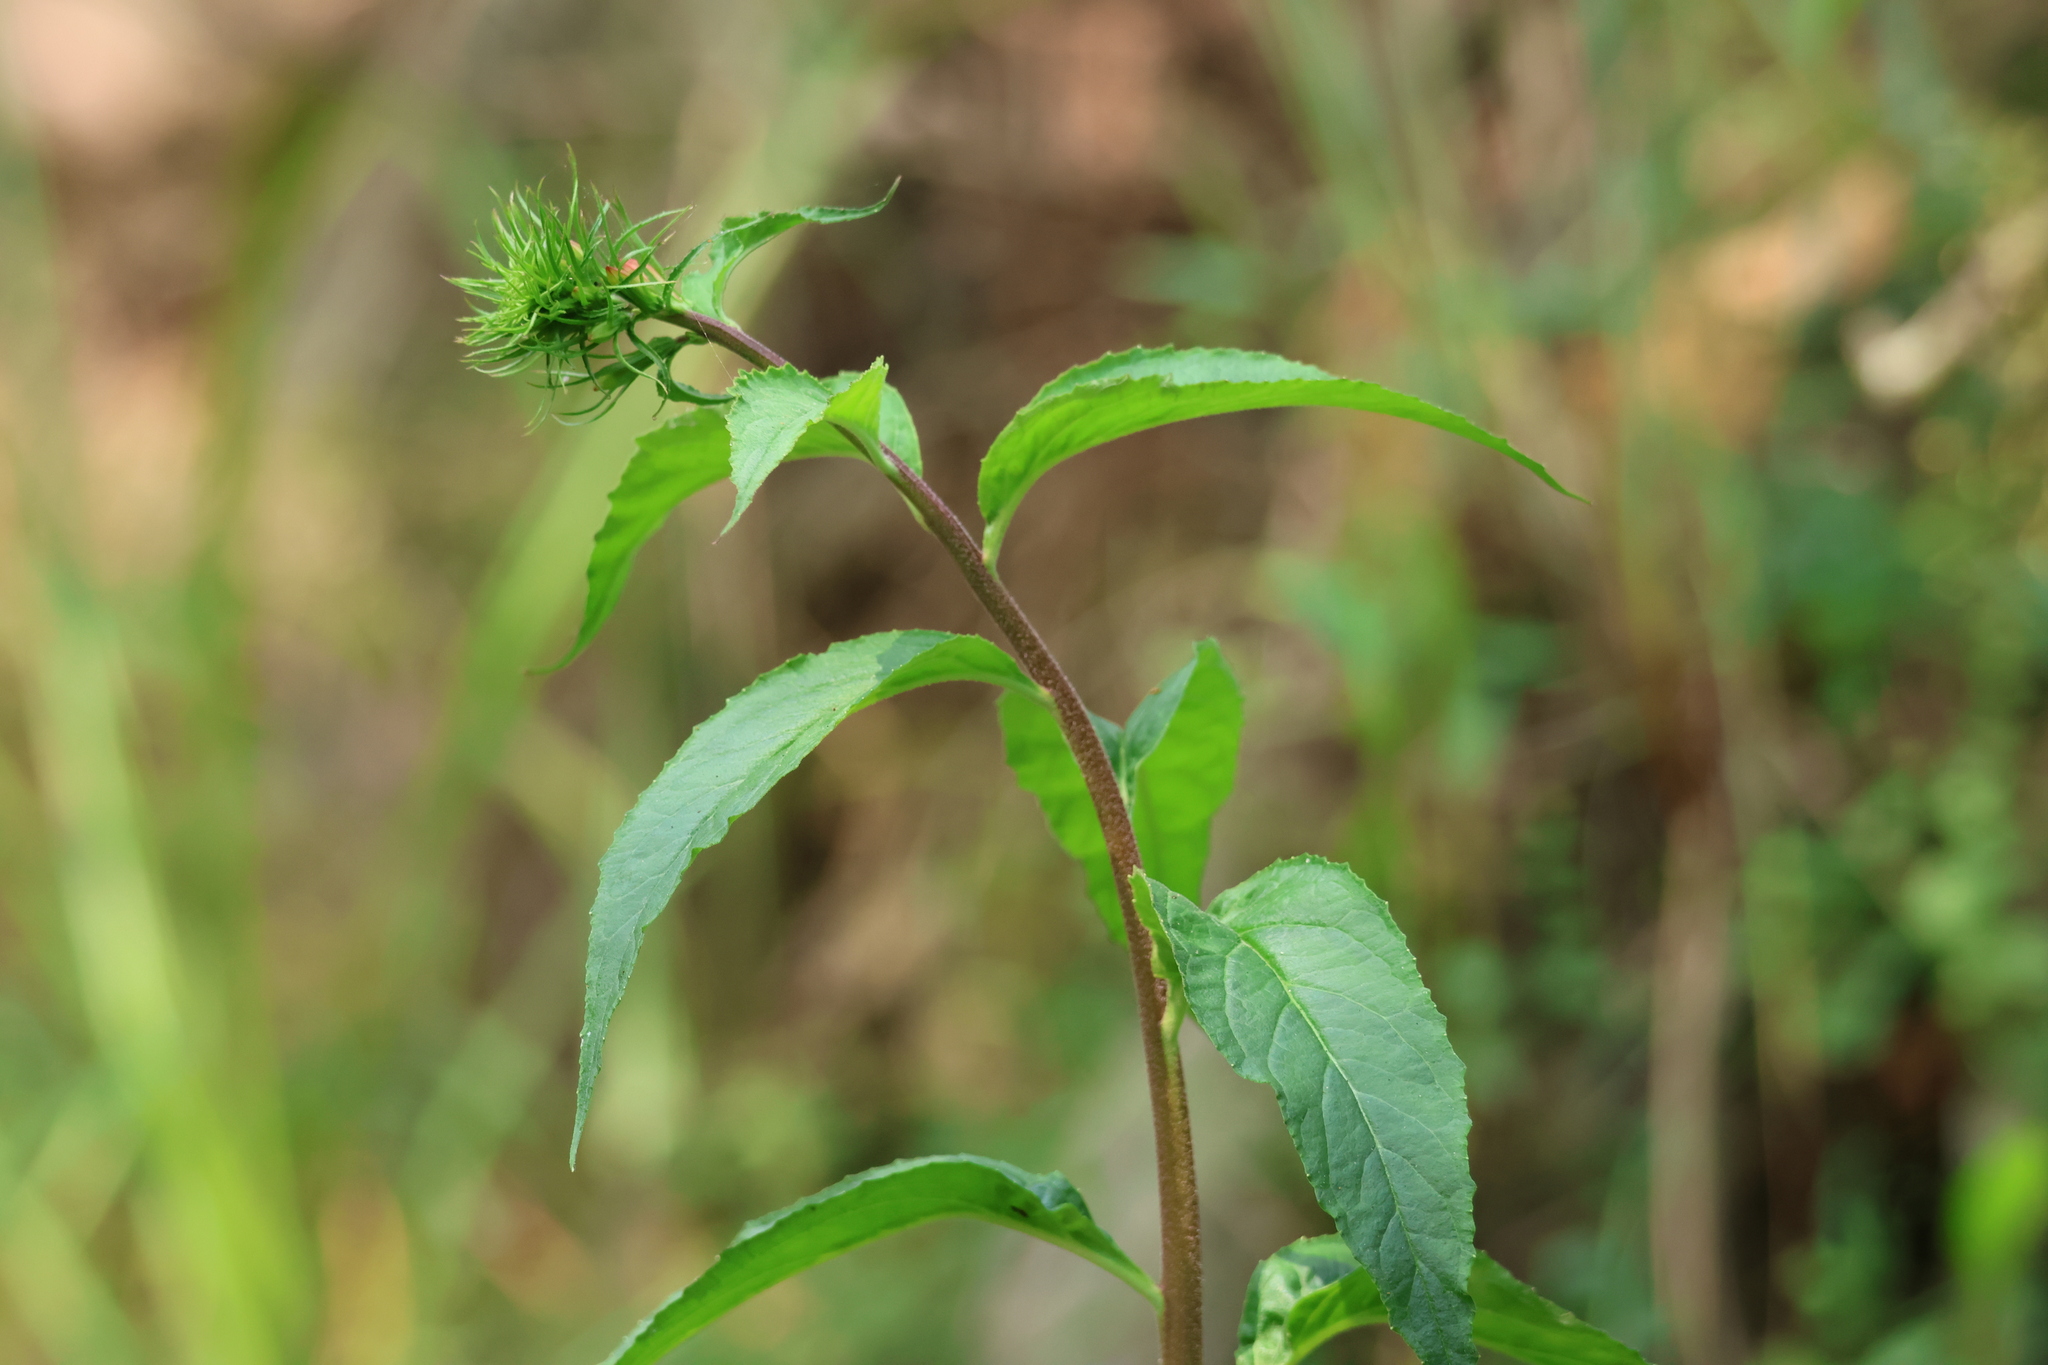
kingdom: Plantae
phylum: Tracheophyta
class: Magnoliopsida
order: Asterales
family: Campanulaceae
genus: Lobelia
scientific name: Lobelia cardinalis
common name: Cardinal flower
